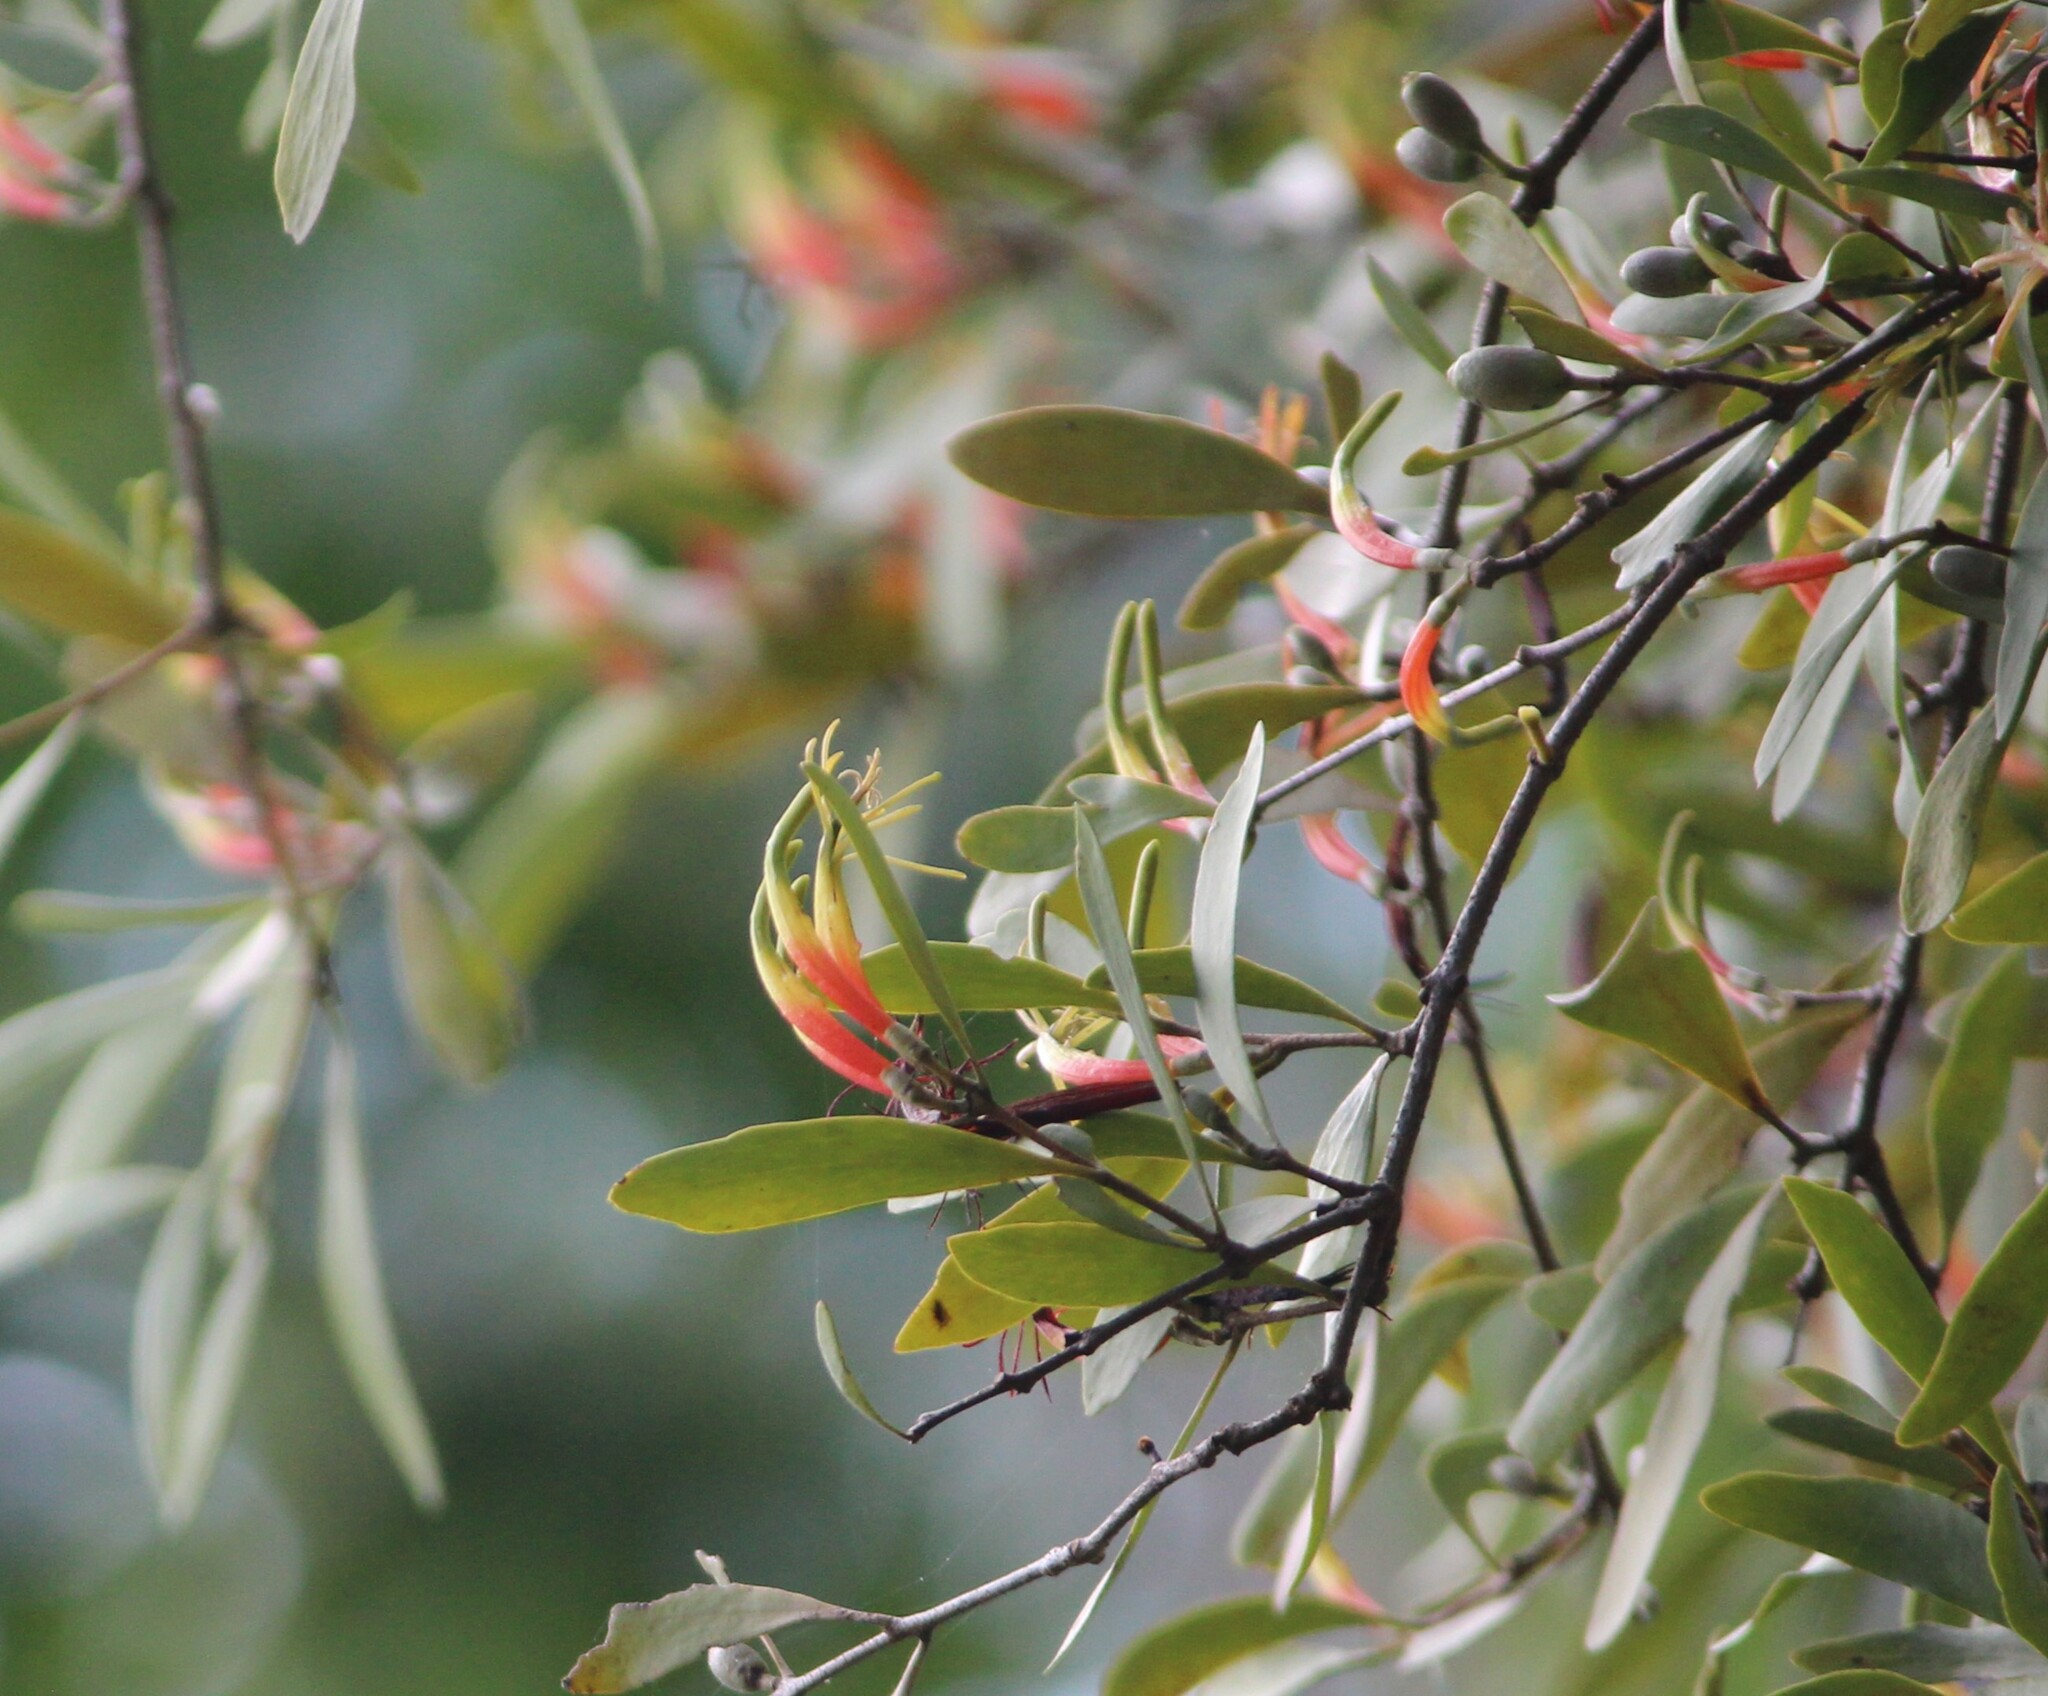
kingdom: Plantae
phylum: Tracheophyta
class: Magnoliopsida
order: Santalales
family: Loranthaceae
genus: Lysiana
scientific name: Lysiana spathulata
